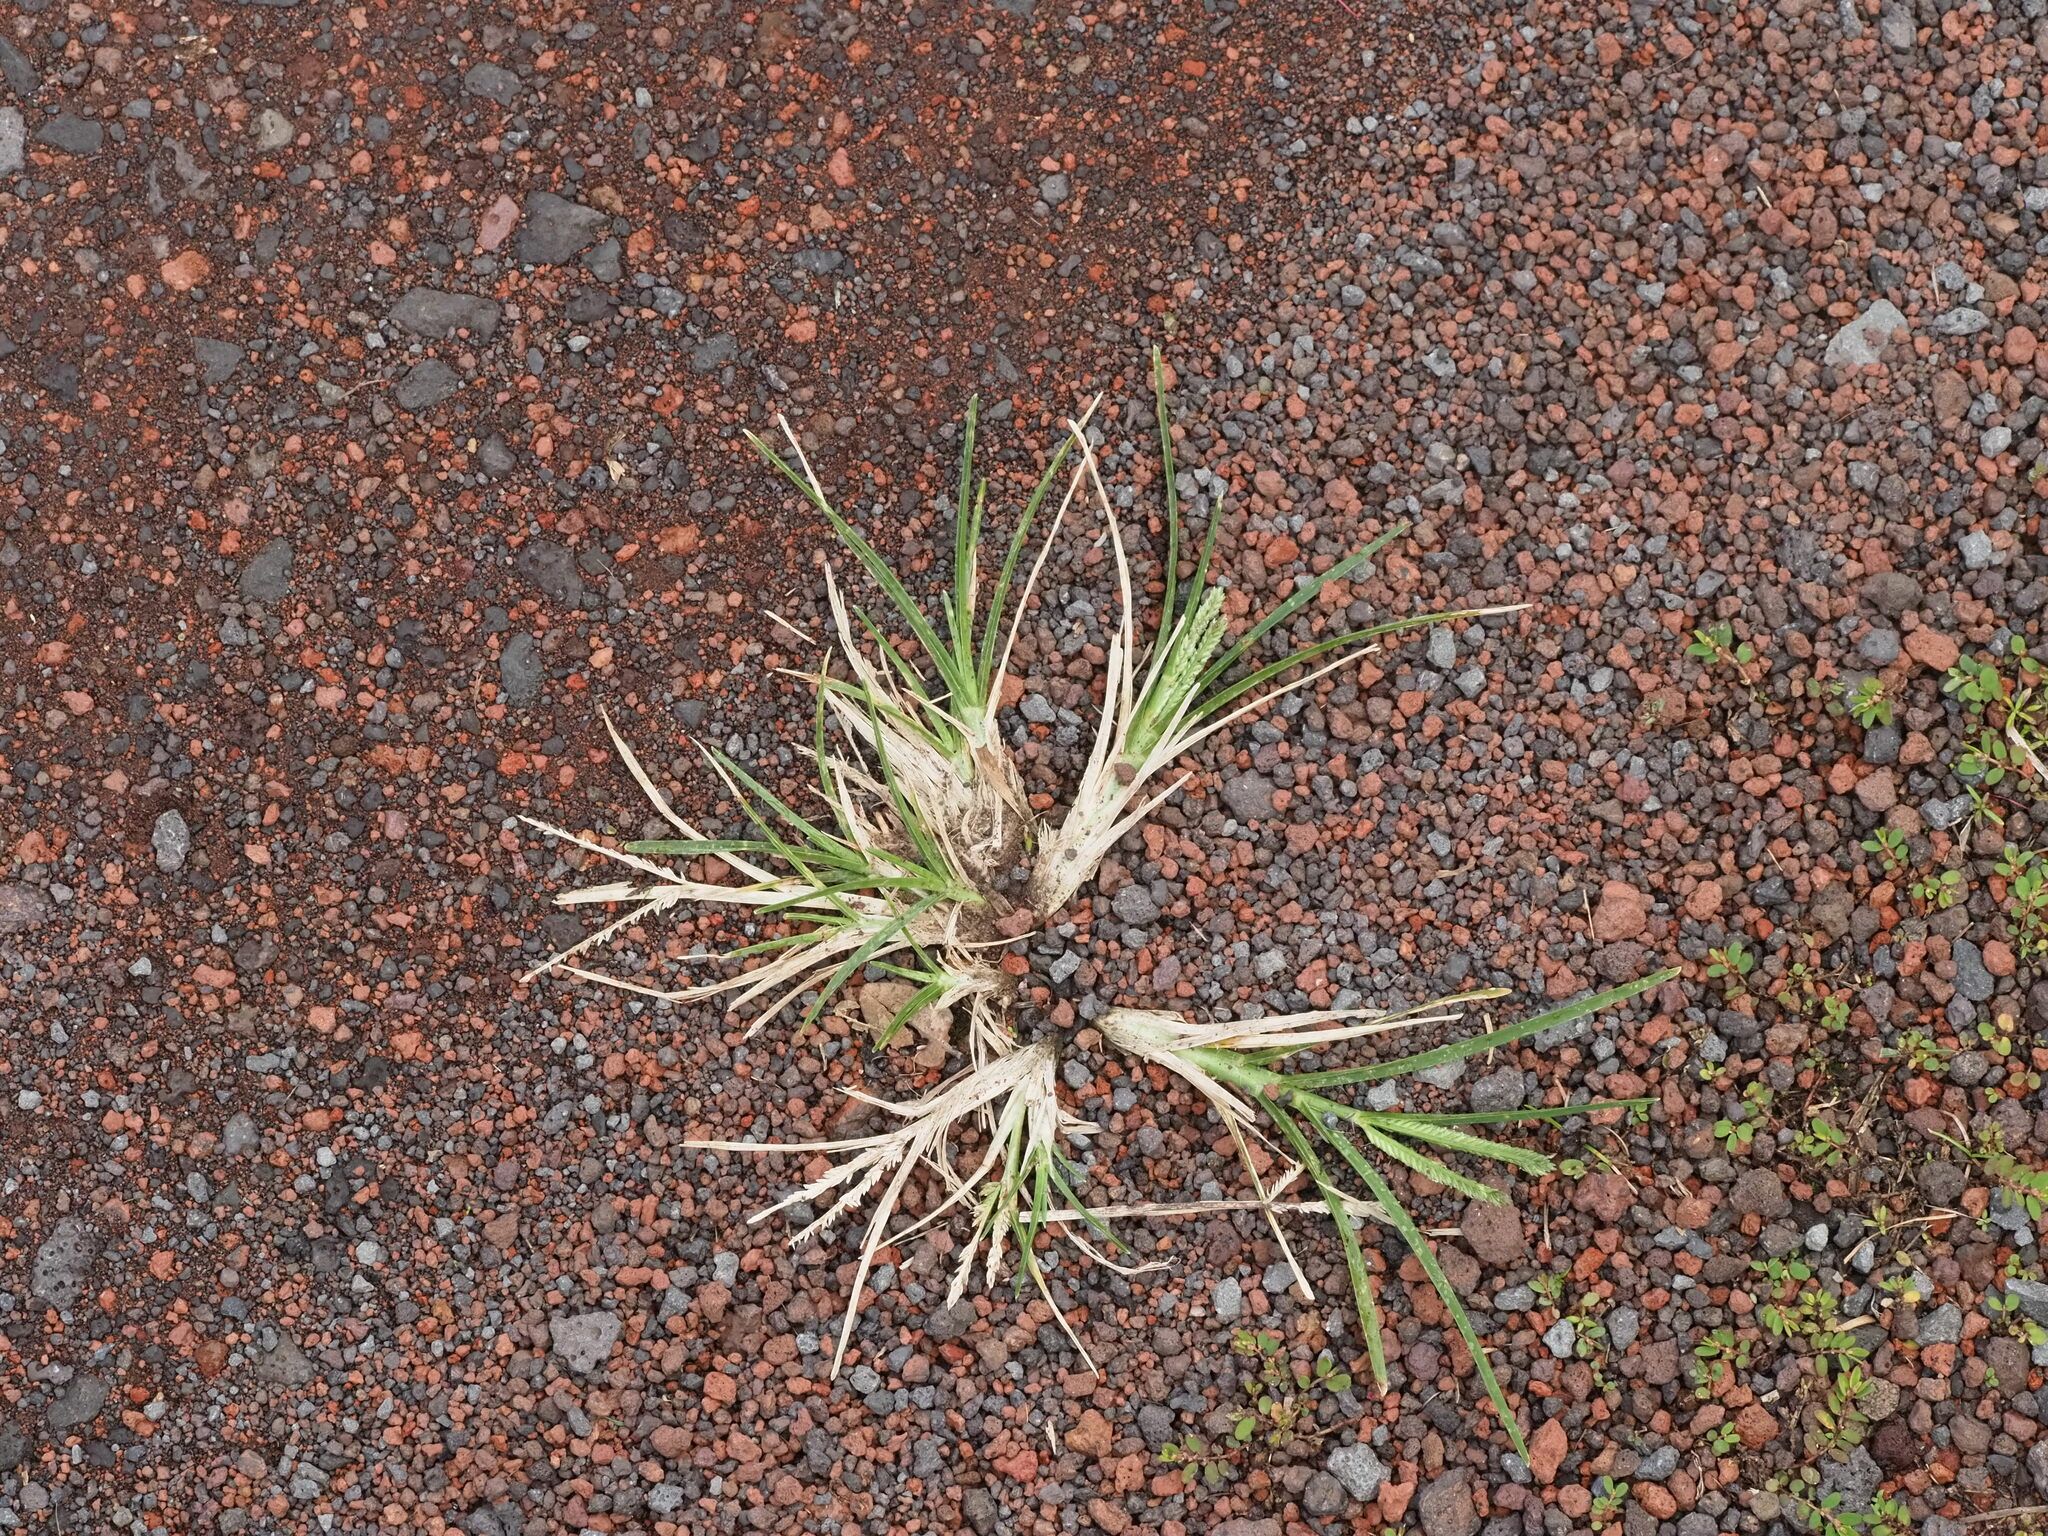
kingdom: Plantae
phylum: Tracheophyta
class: Liliopsida
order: Poales
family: Poaceae
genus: Eleusine
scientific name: Eleusine indica
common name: Yard-grass
